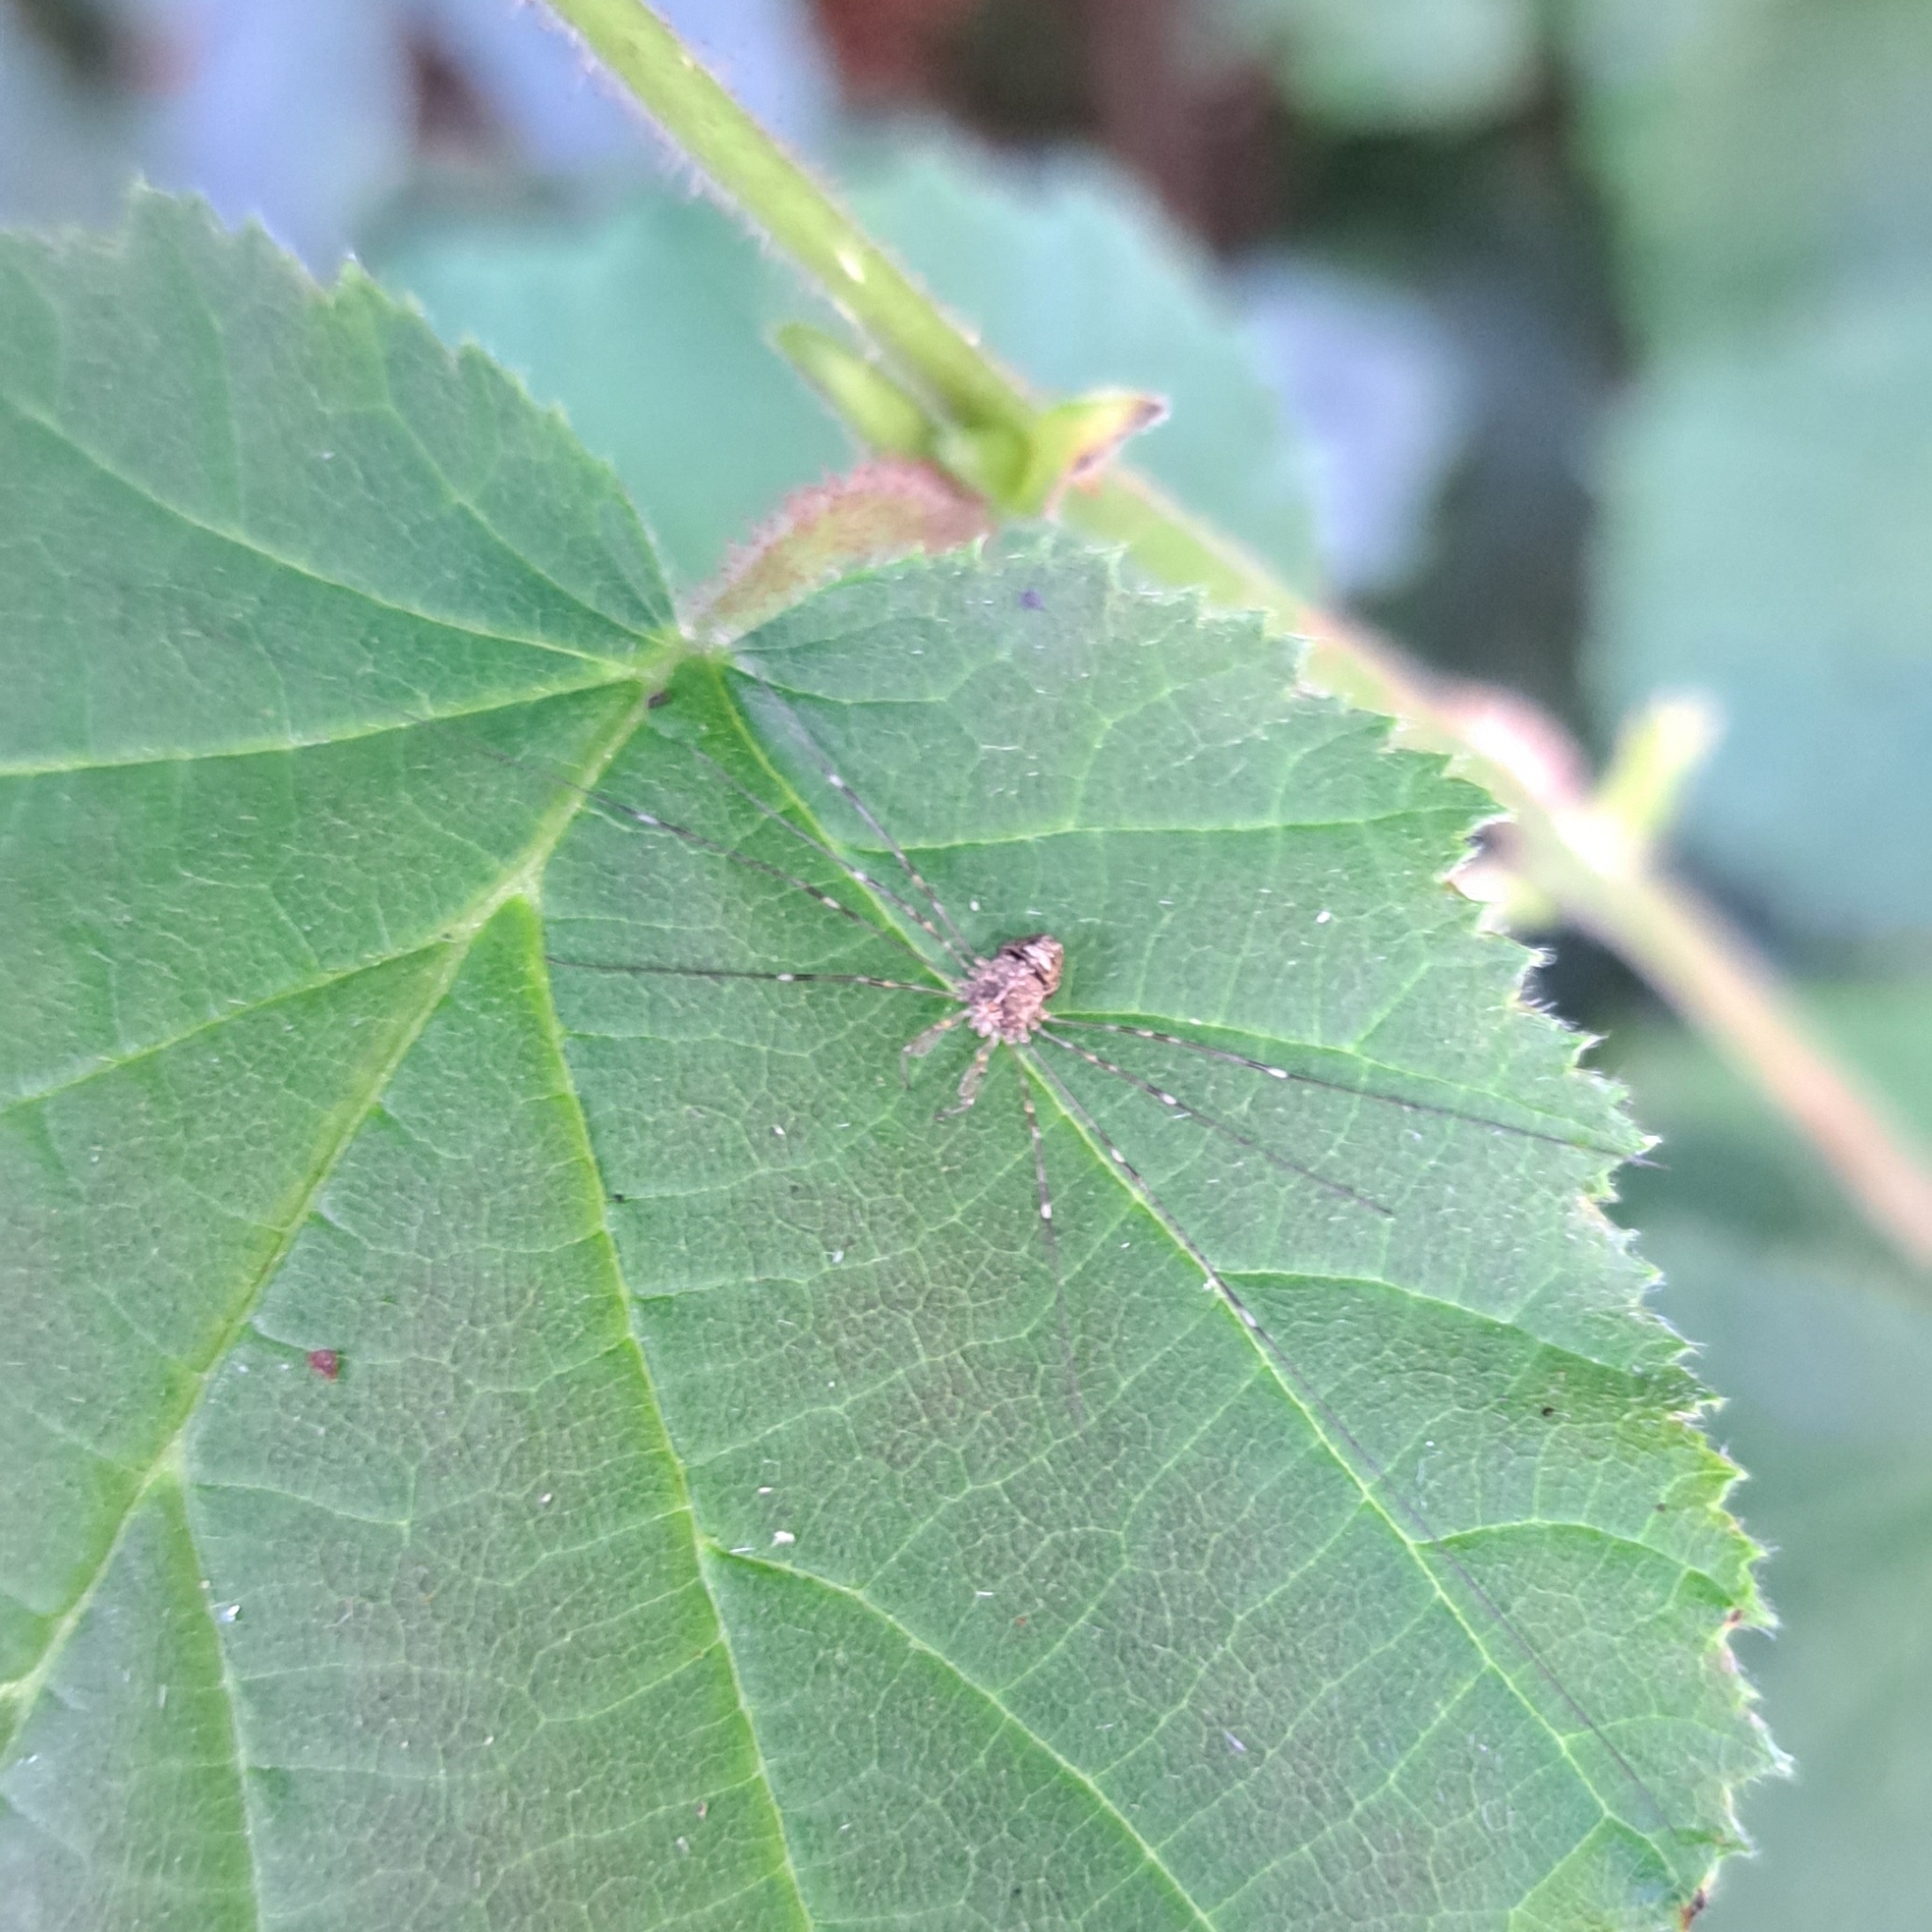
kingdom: Animalia
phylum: Arthropoda
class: Arachnida
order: Opiliones
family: Phalangiidae
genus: Dicranopalpus
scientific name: Dicranopalpus ramosus
